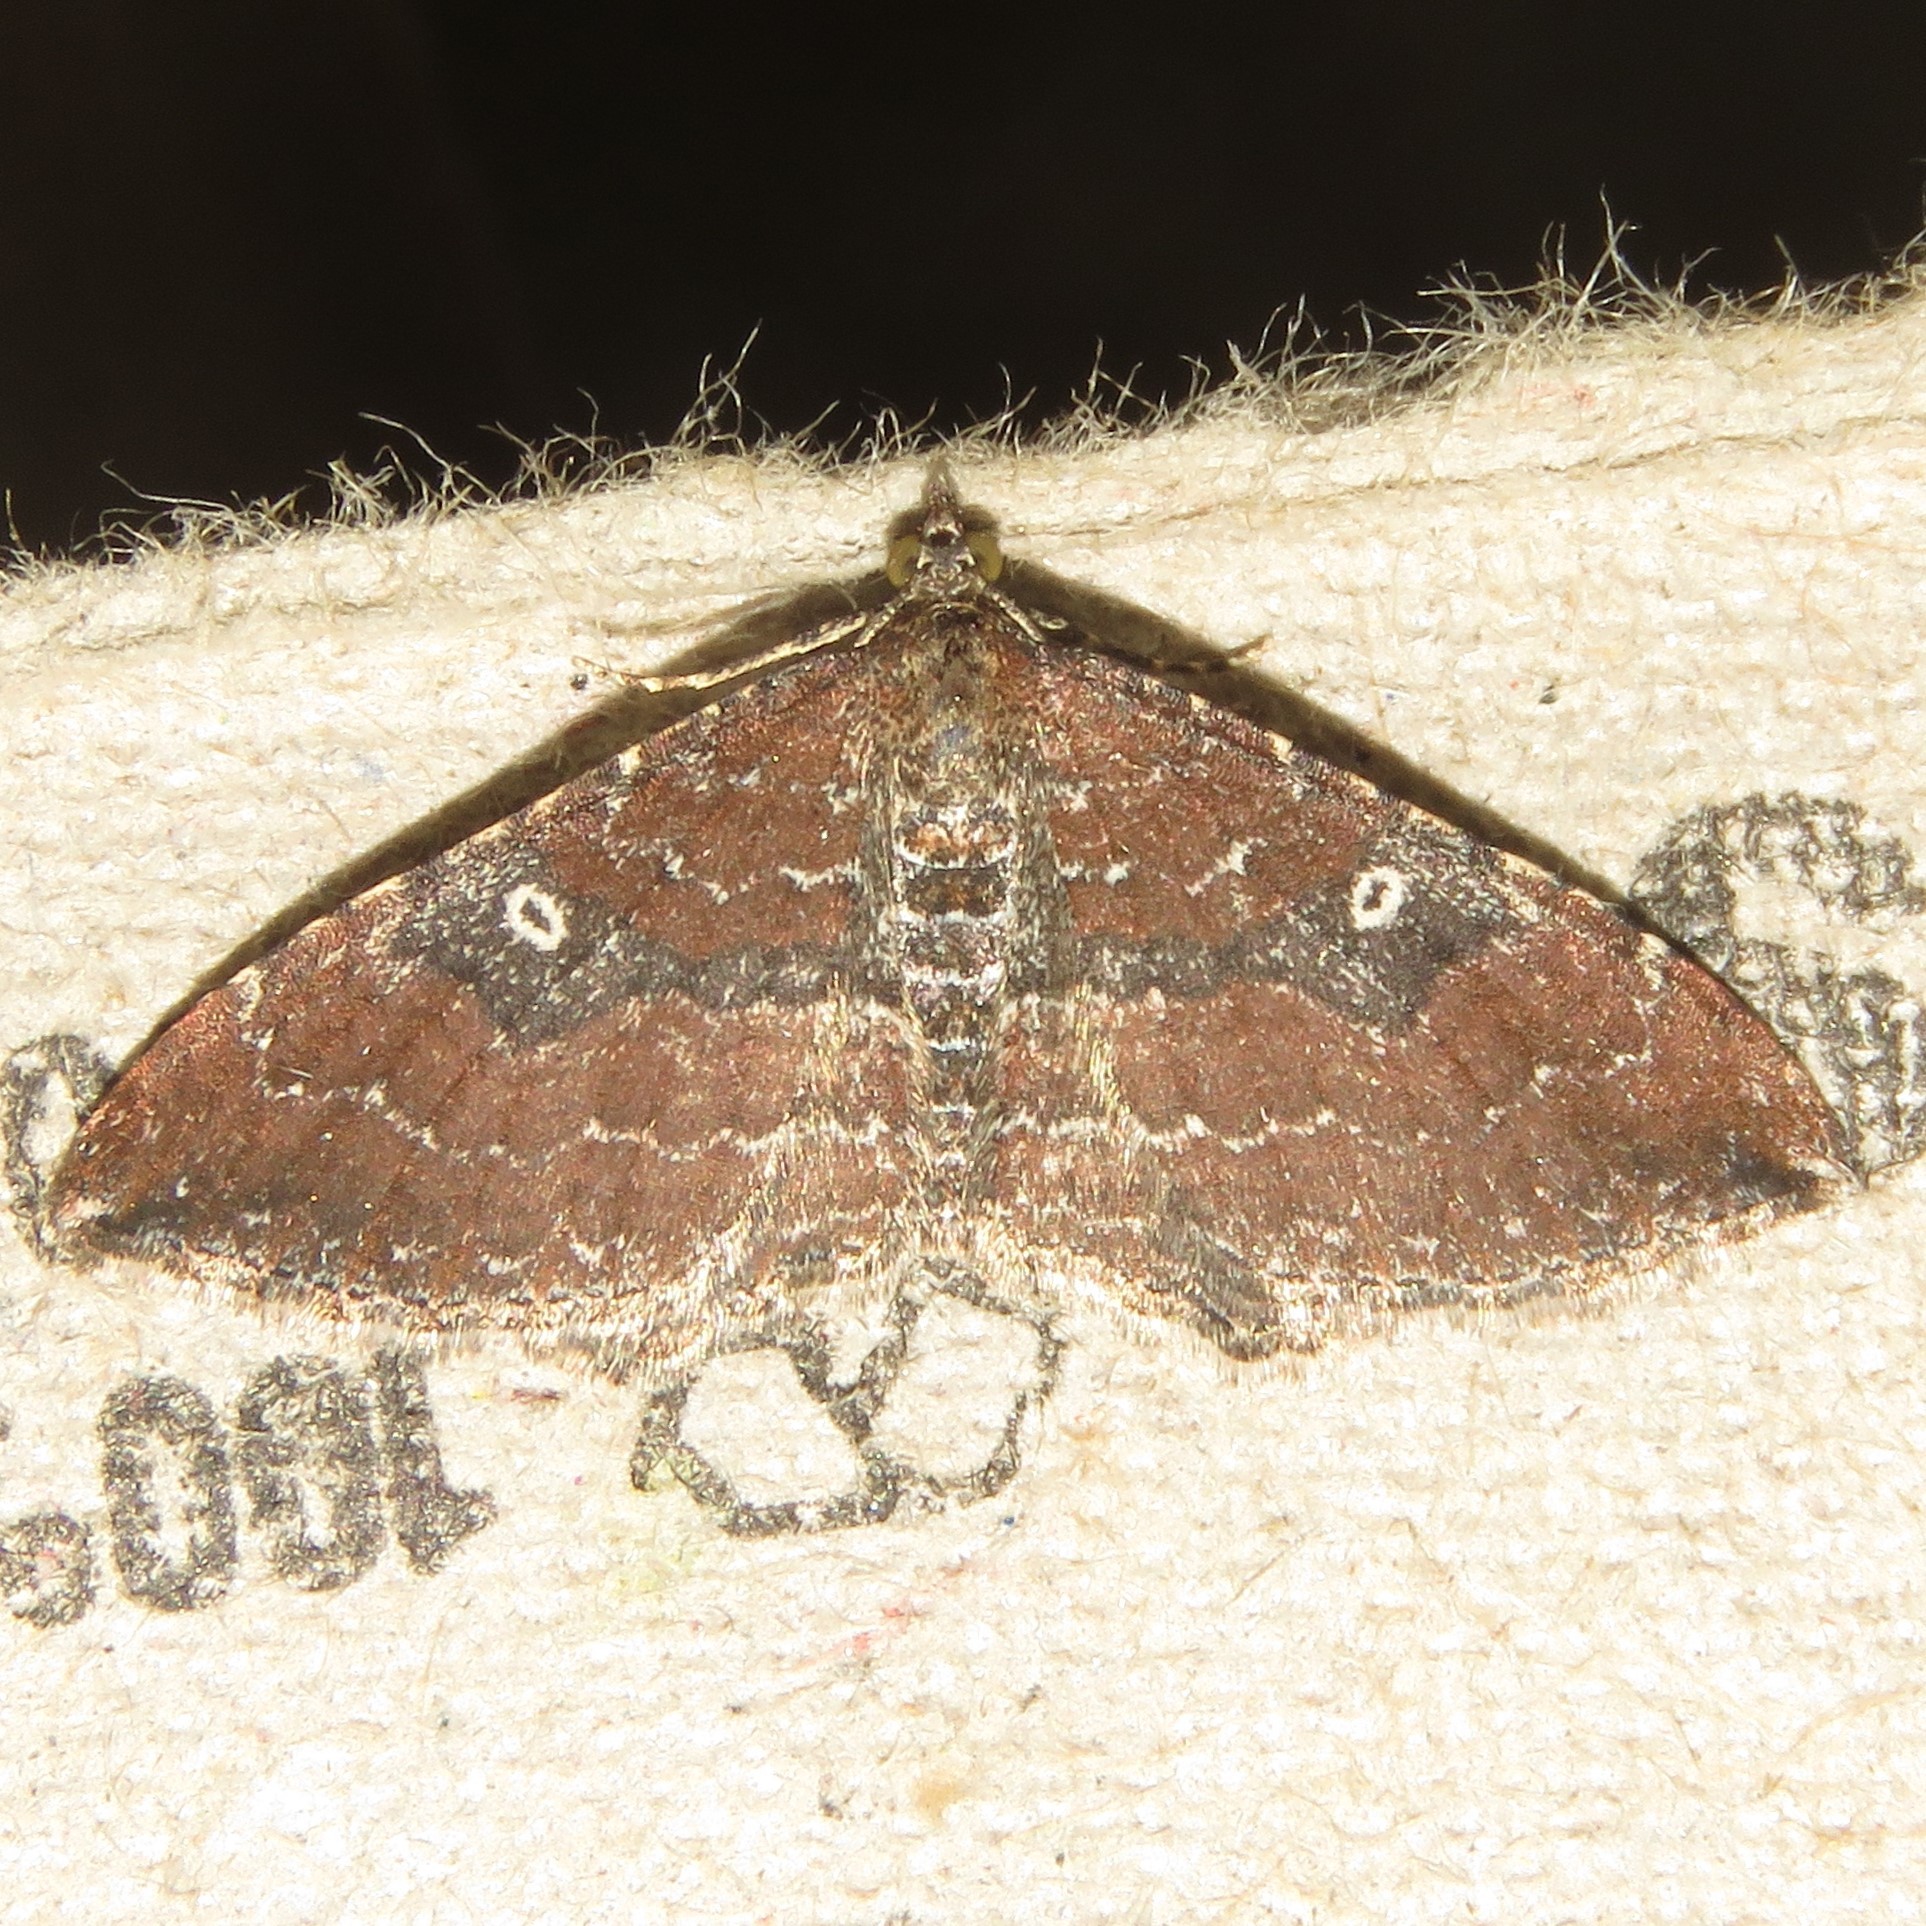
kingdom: Animalia
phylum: Arthropoda
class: Insecta
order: Lepidoptera
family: Geometridae
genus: Orthonama
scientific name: Orthonama obstipata
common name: The gem
